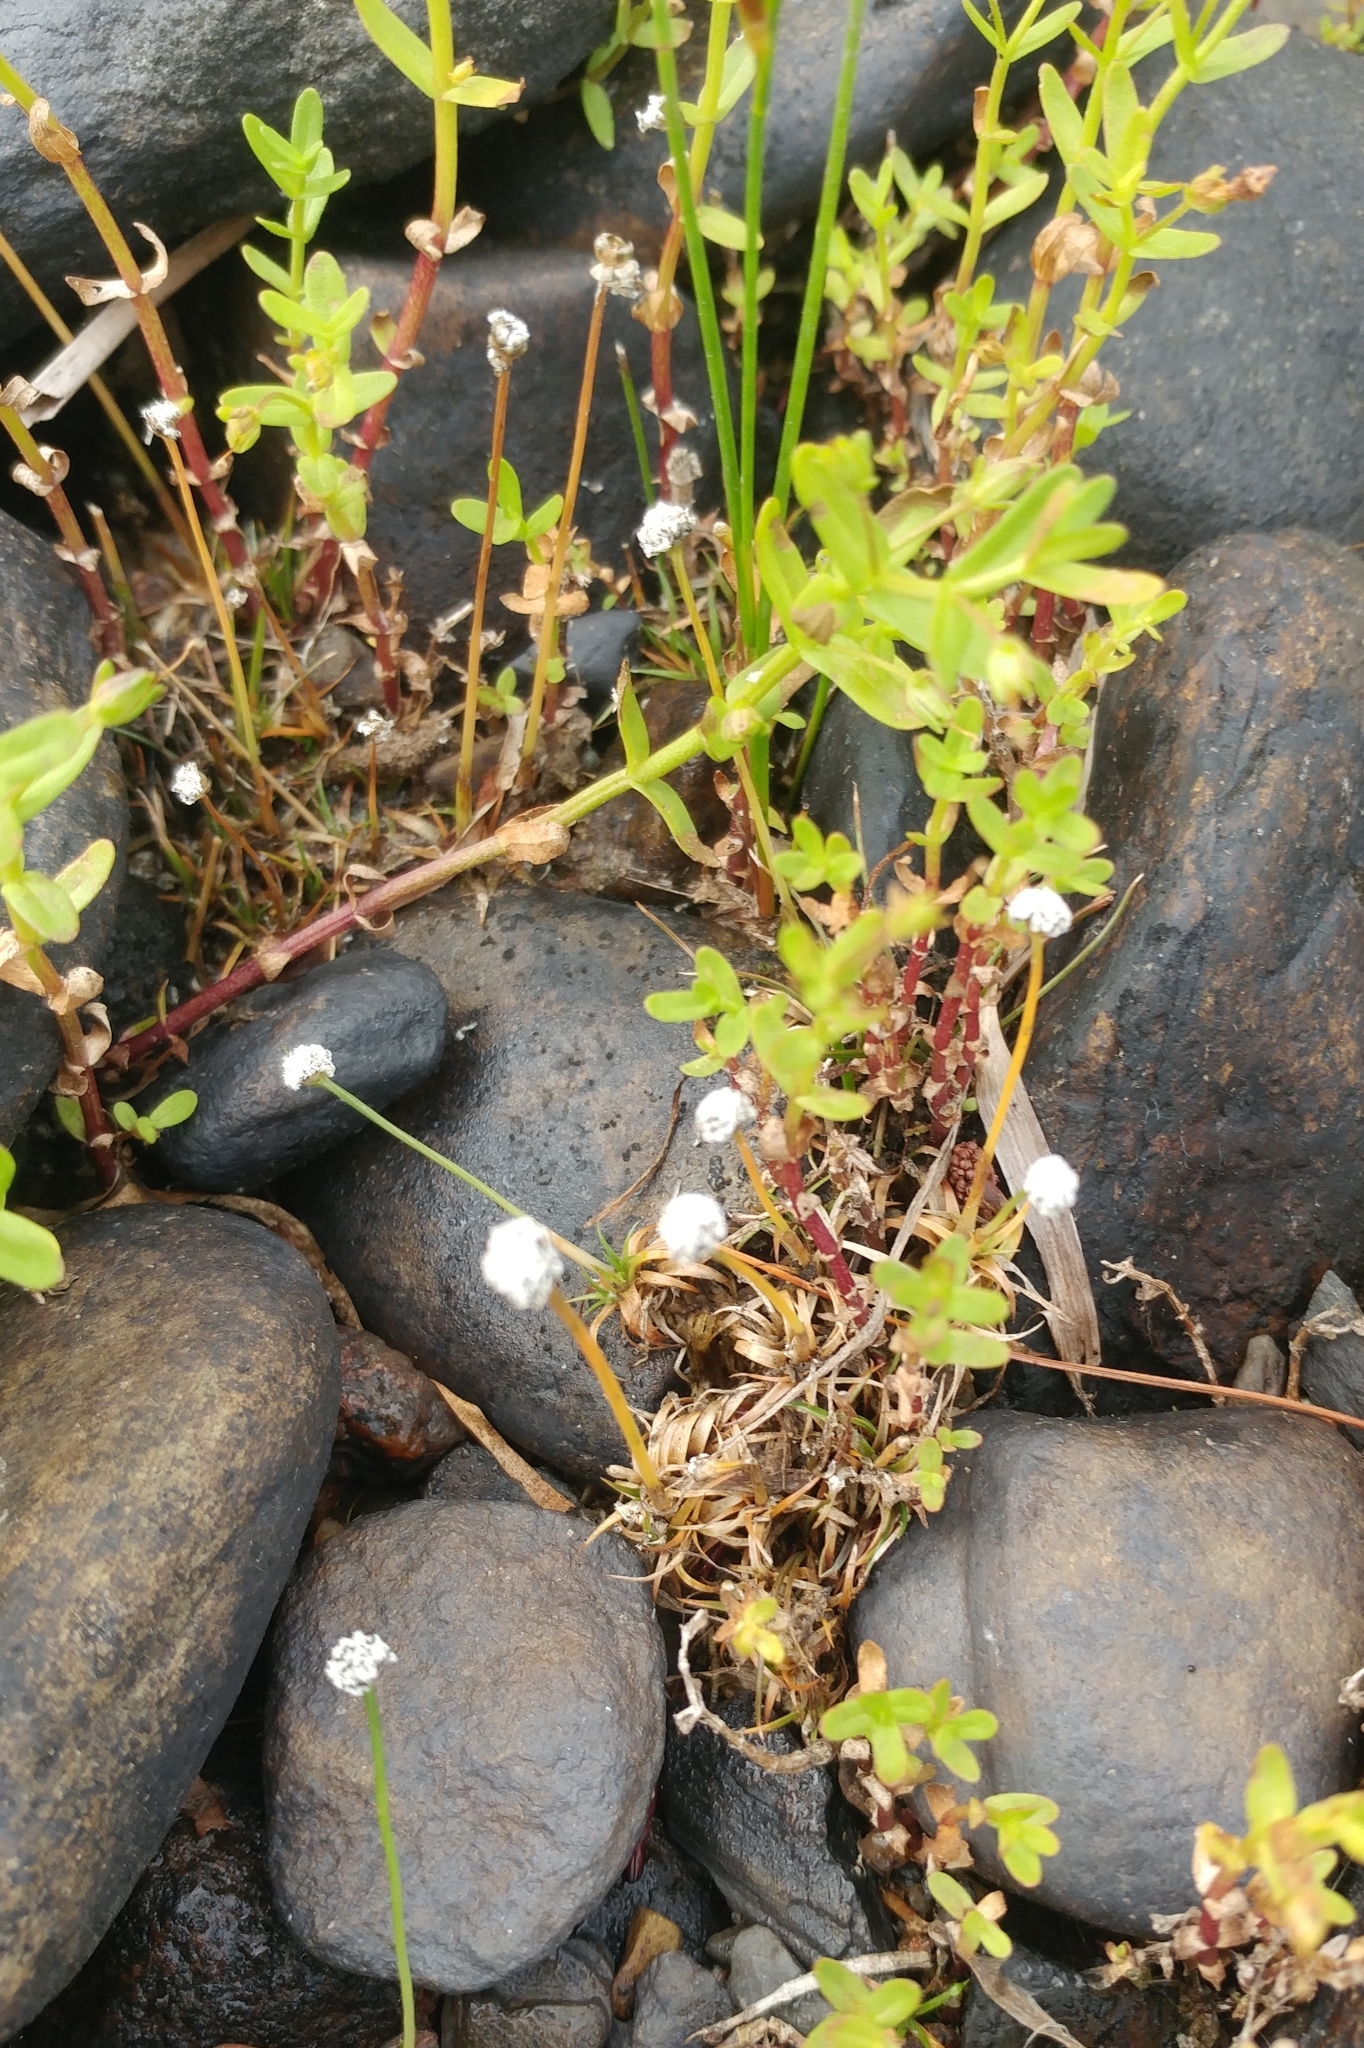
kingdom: Plantae
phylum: Tracheophyta
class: Liliopsida
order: Poales
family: Eriocaulaceae
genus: Eriocaulon
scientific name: Eriocaulon aquaticum
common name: Pipewort
